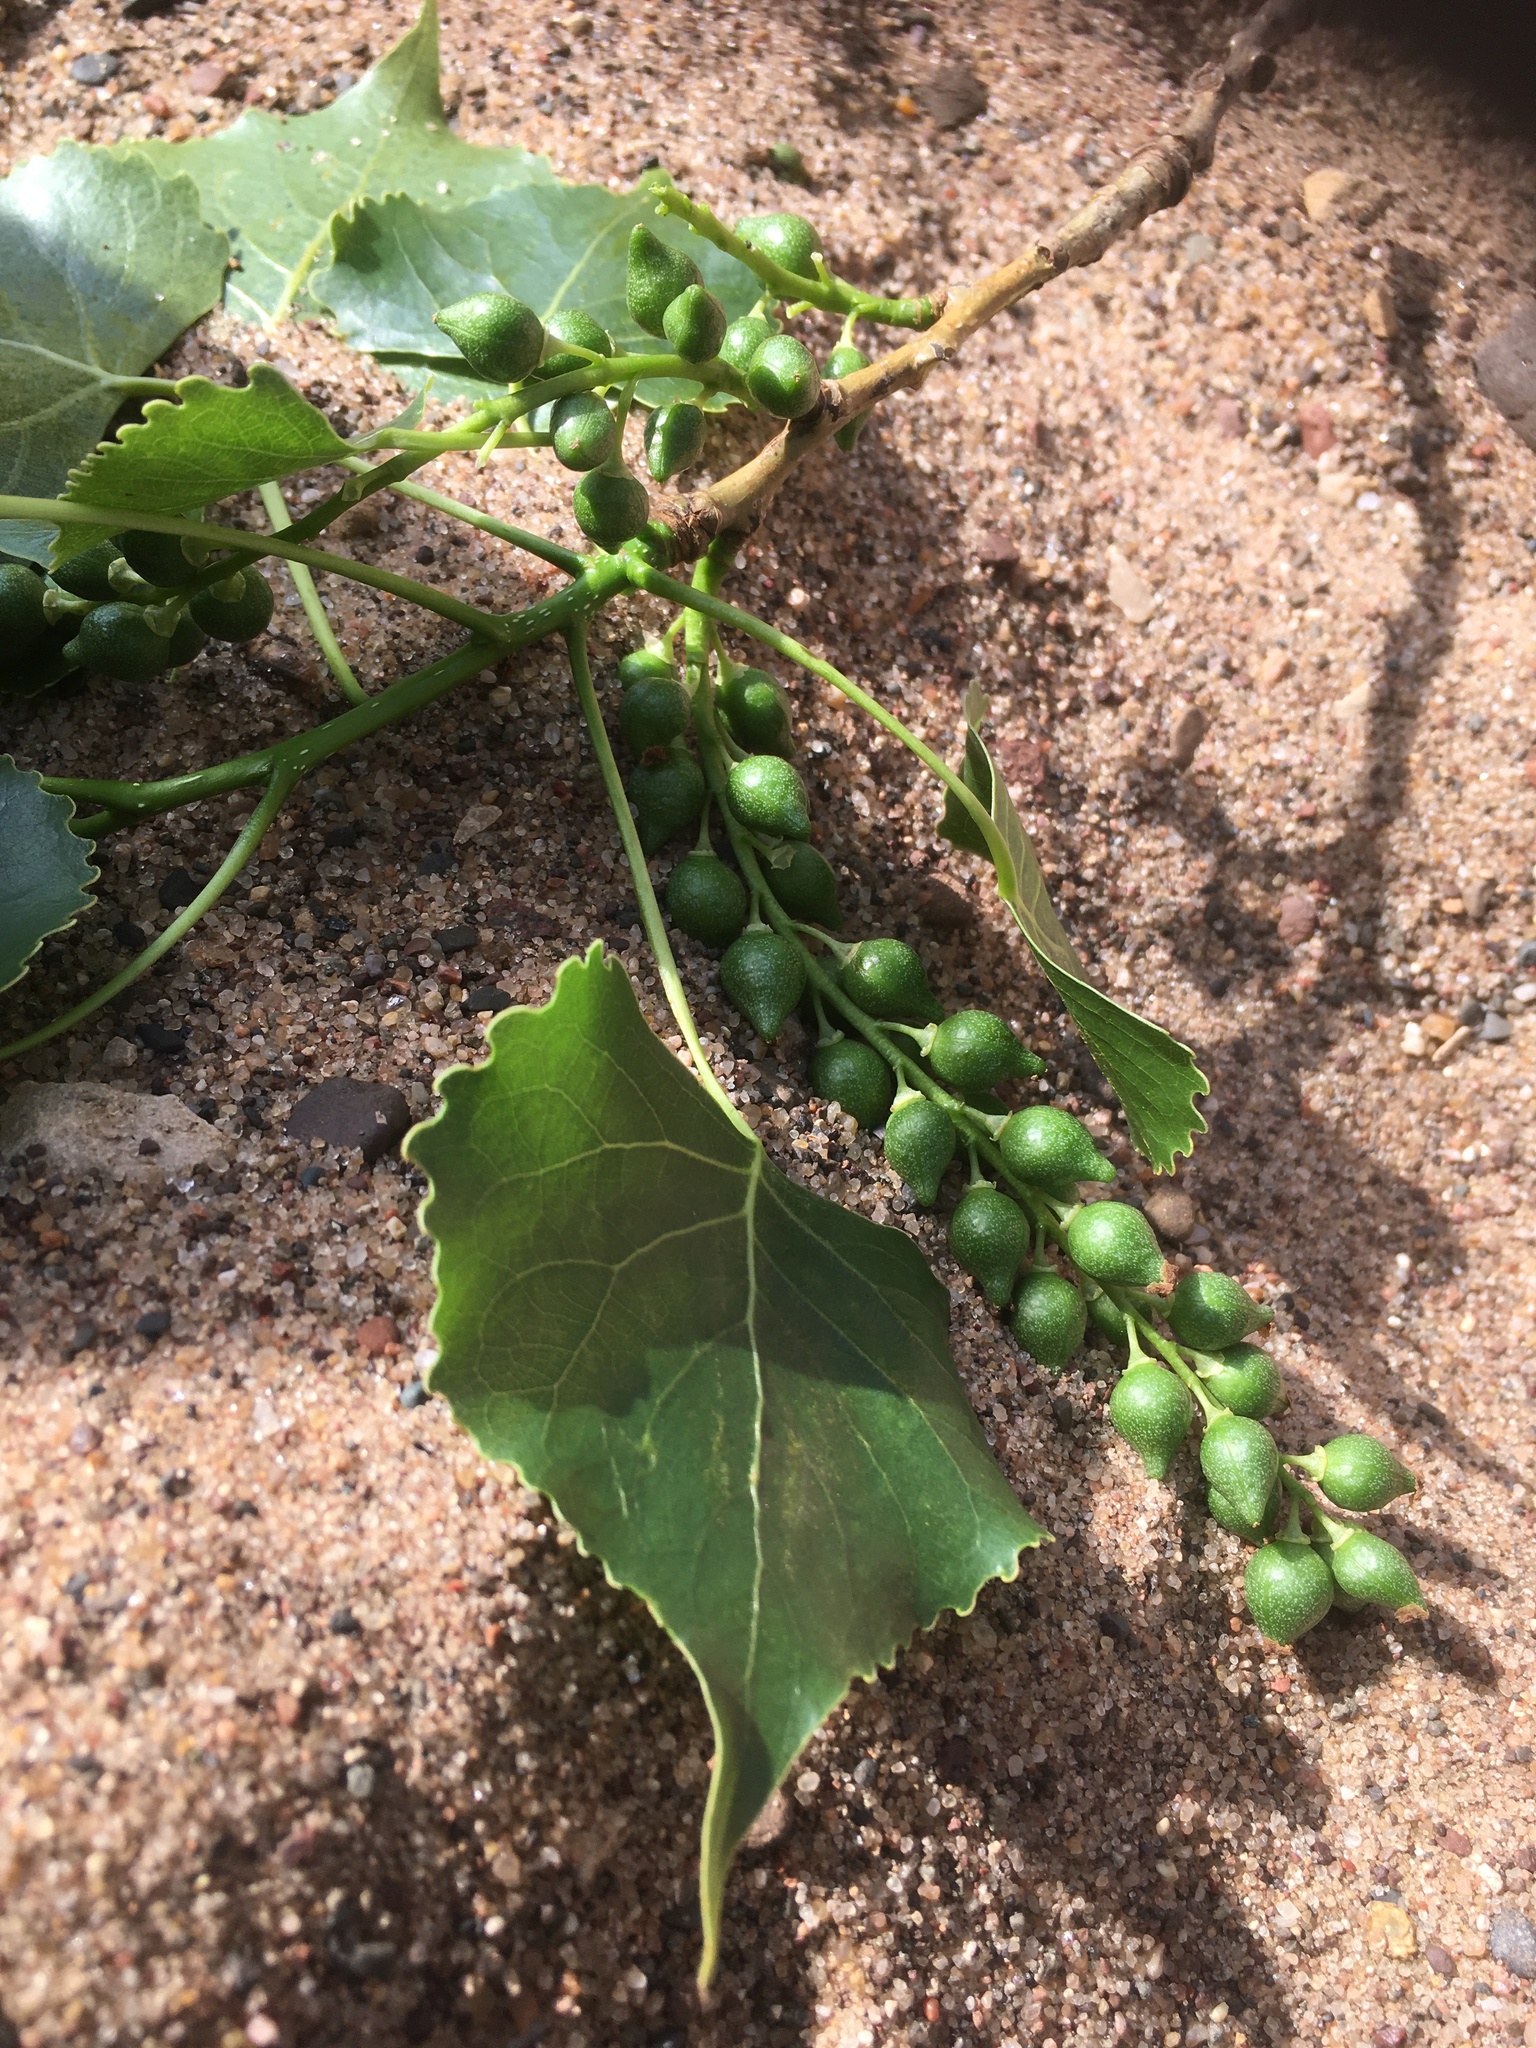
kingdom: Plantae
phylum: Tracheophyta
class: Magnoliopsida
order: Malpighiales
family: Salicaceae
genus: Populus
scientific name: Populus deltoides
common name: Eastern cottonwood
